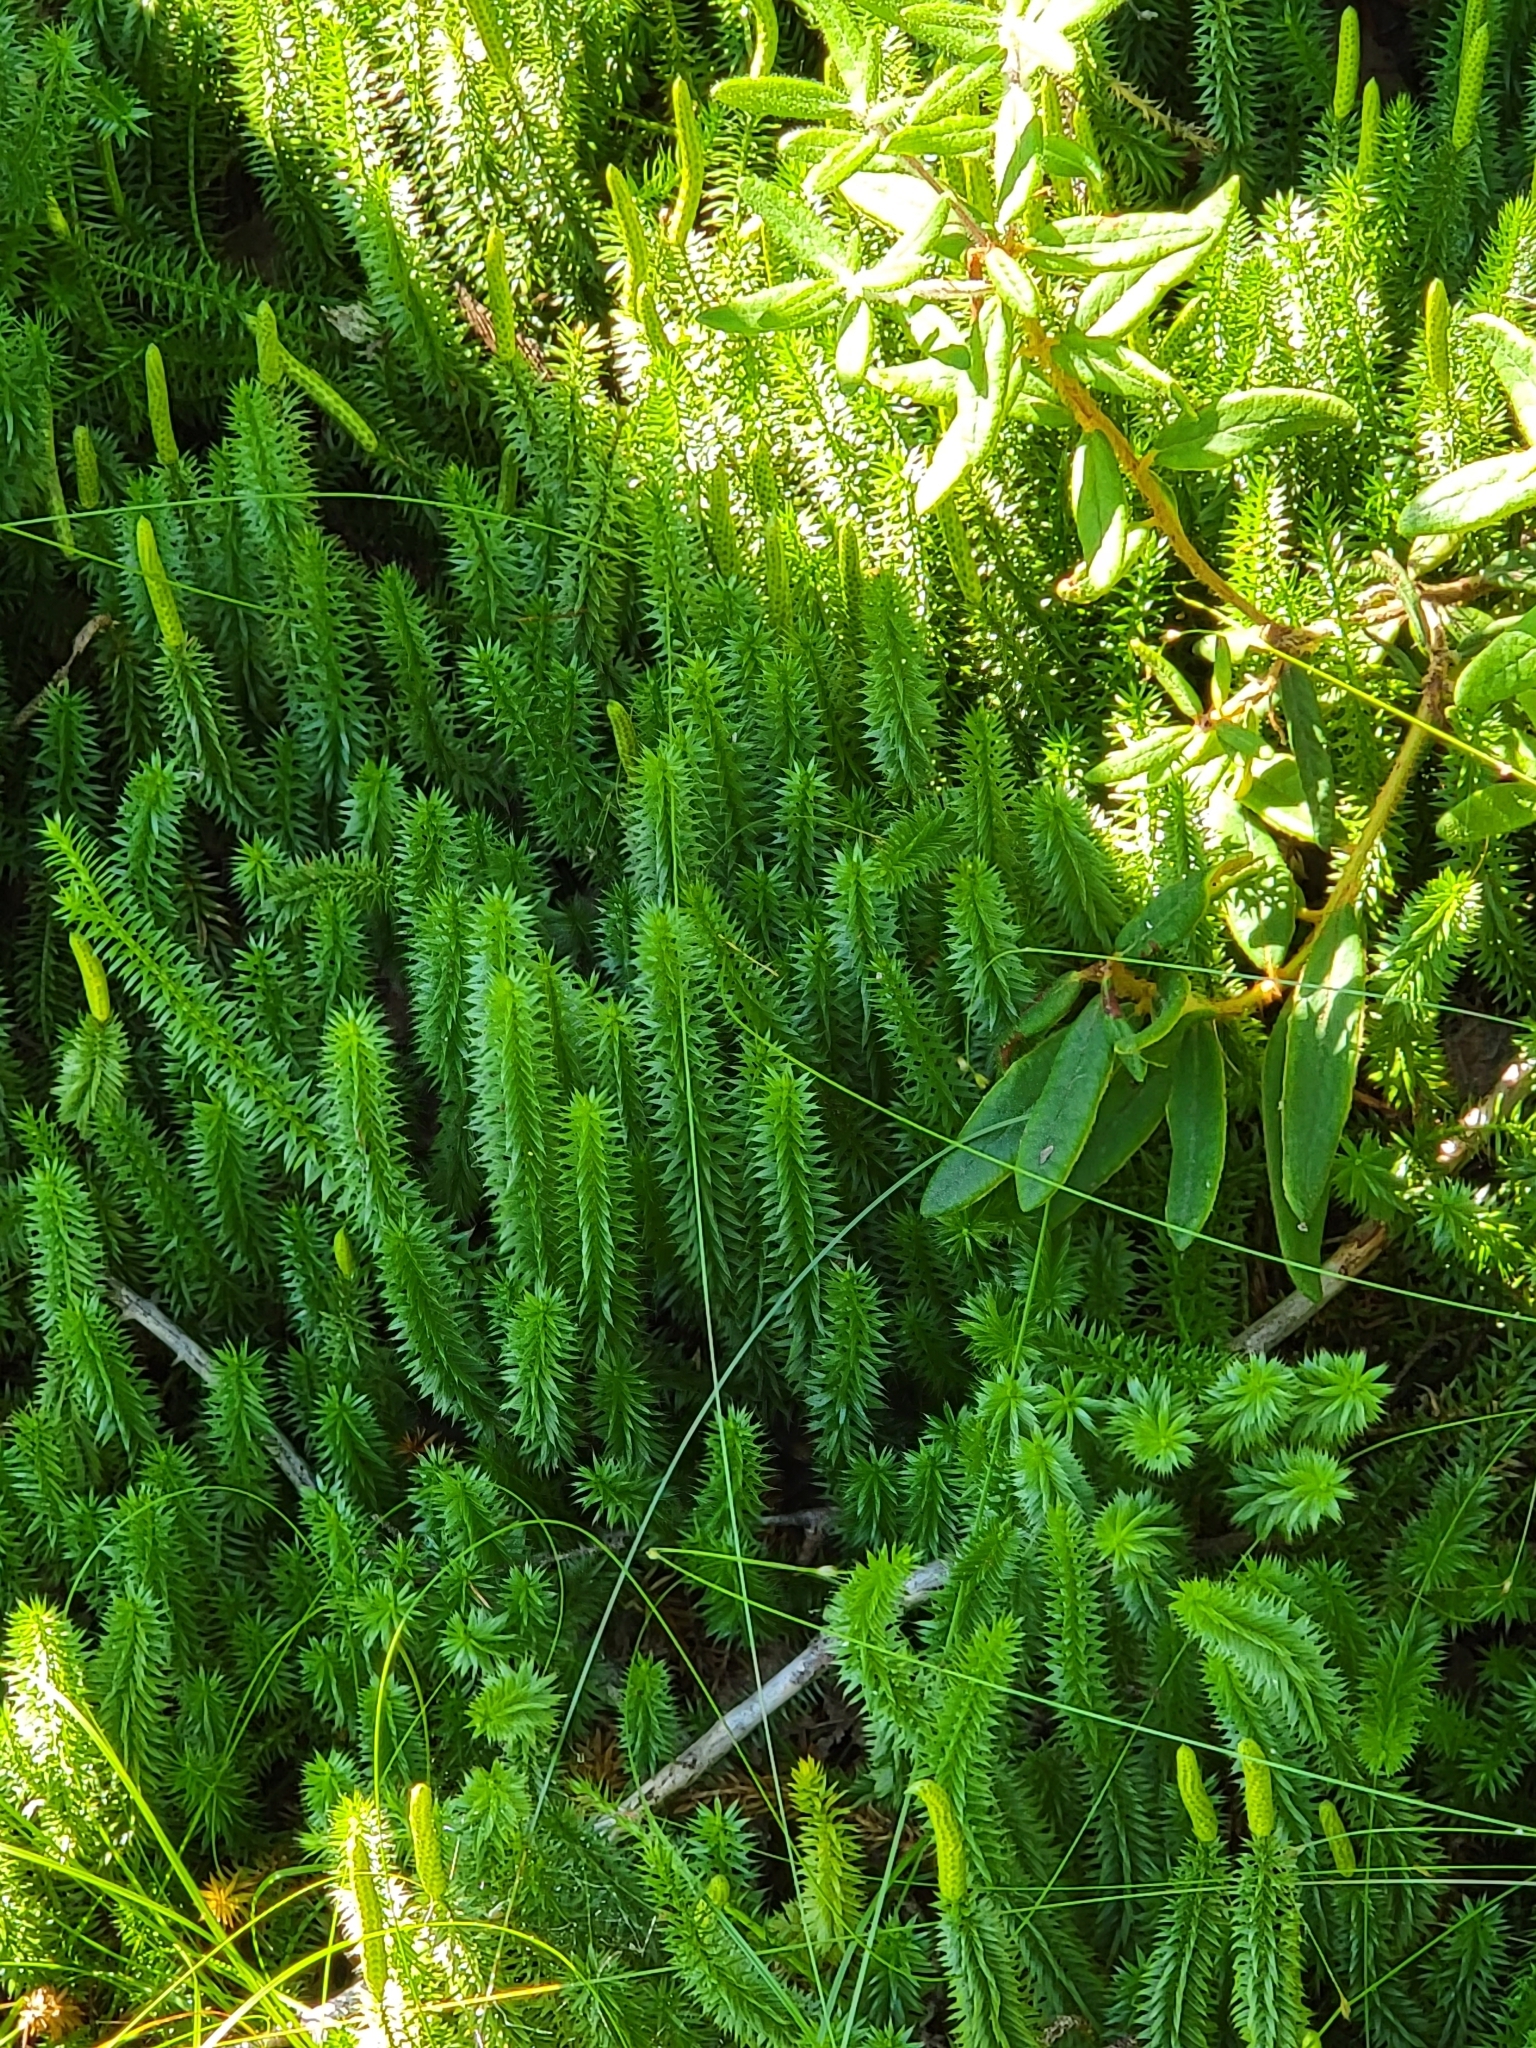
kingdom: Plantae
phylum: Tracheophyta
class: Lycopodiopsida
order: Lycopodiales
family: Lycopodiaceae
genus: Spinulum
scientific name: Spinulum annotinum
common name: Interrupted club-moss
